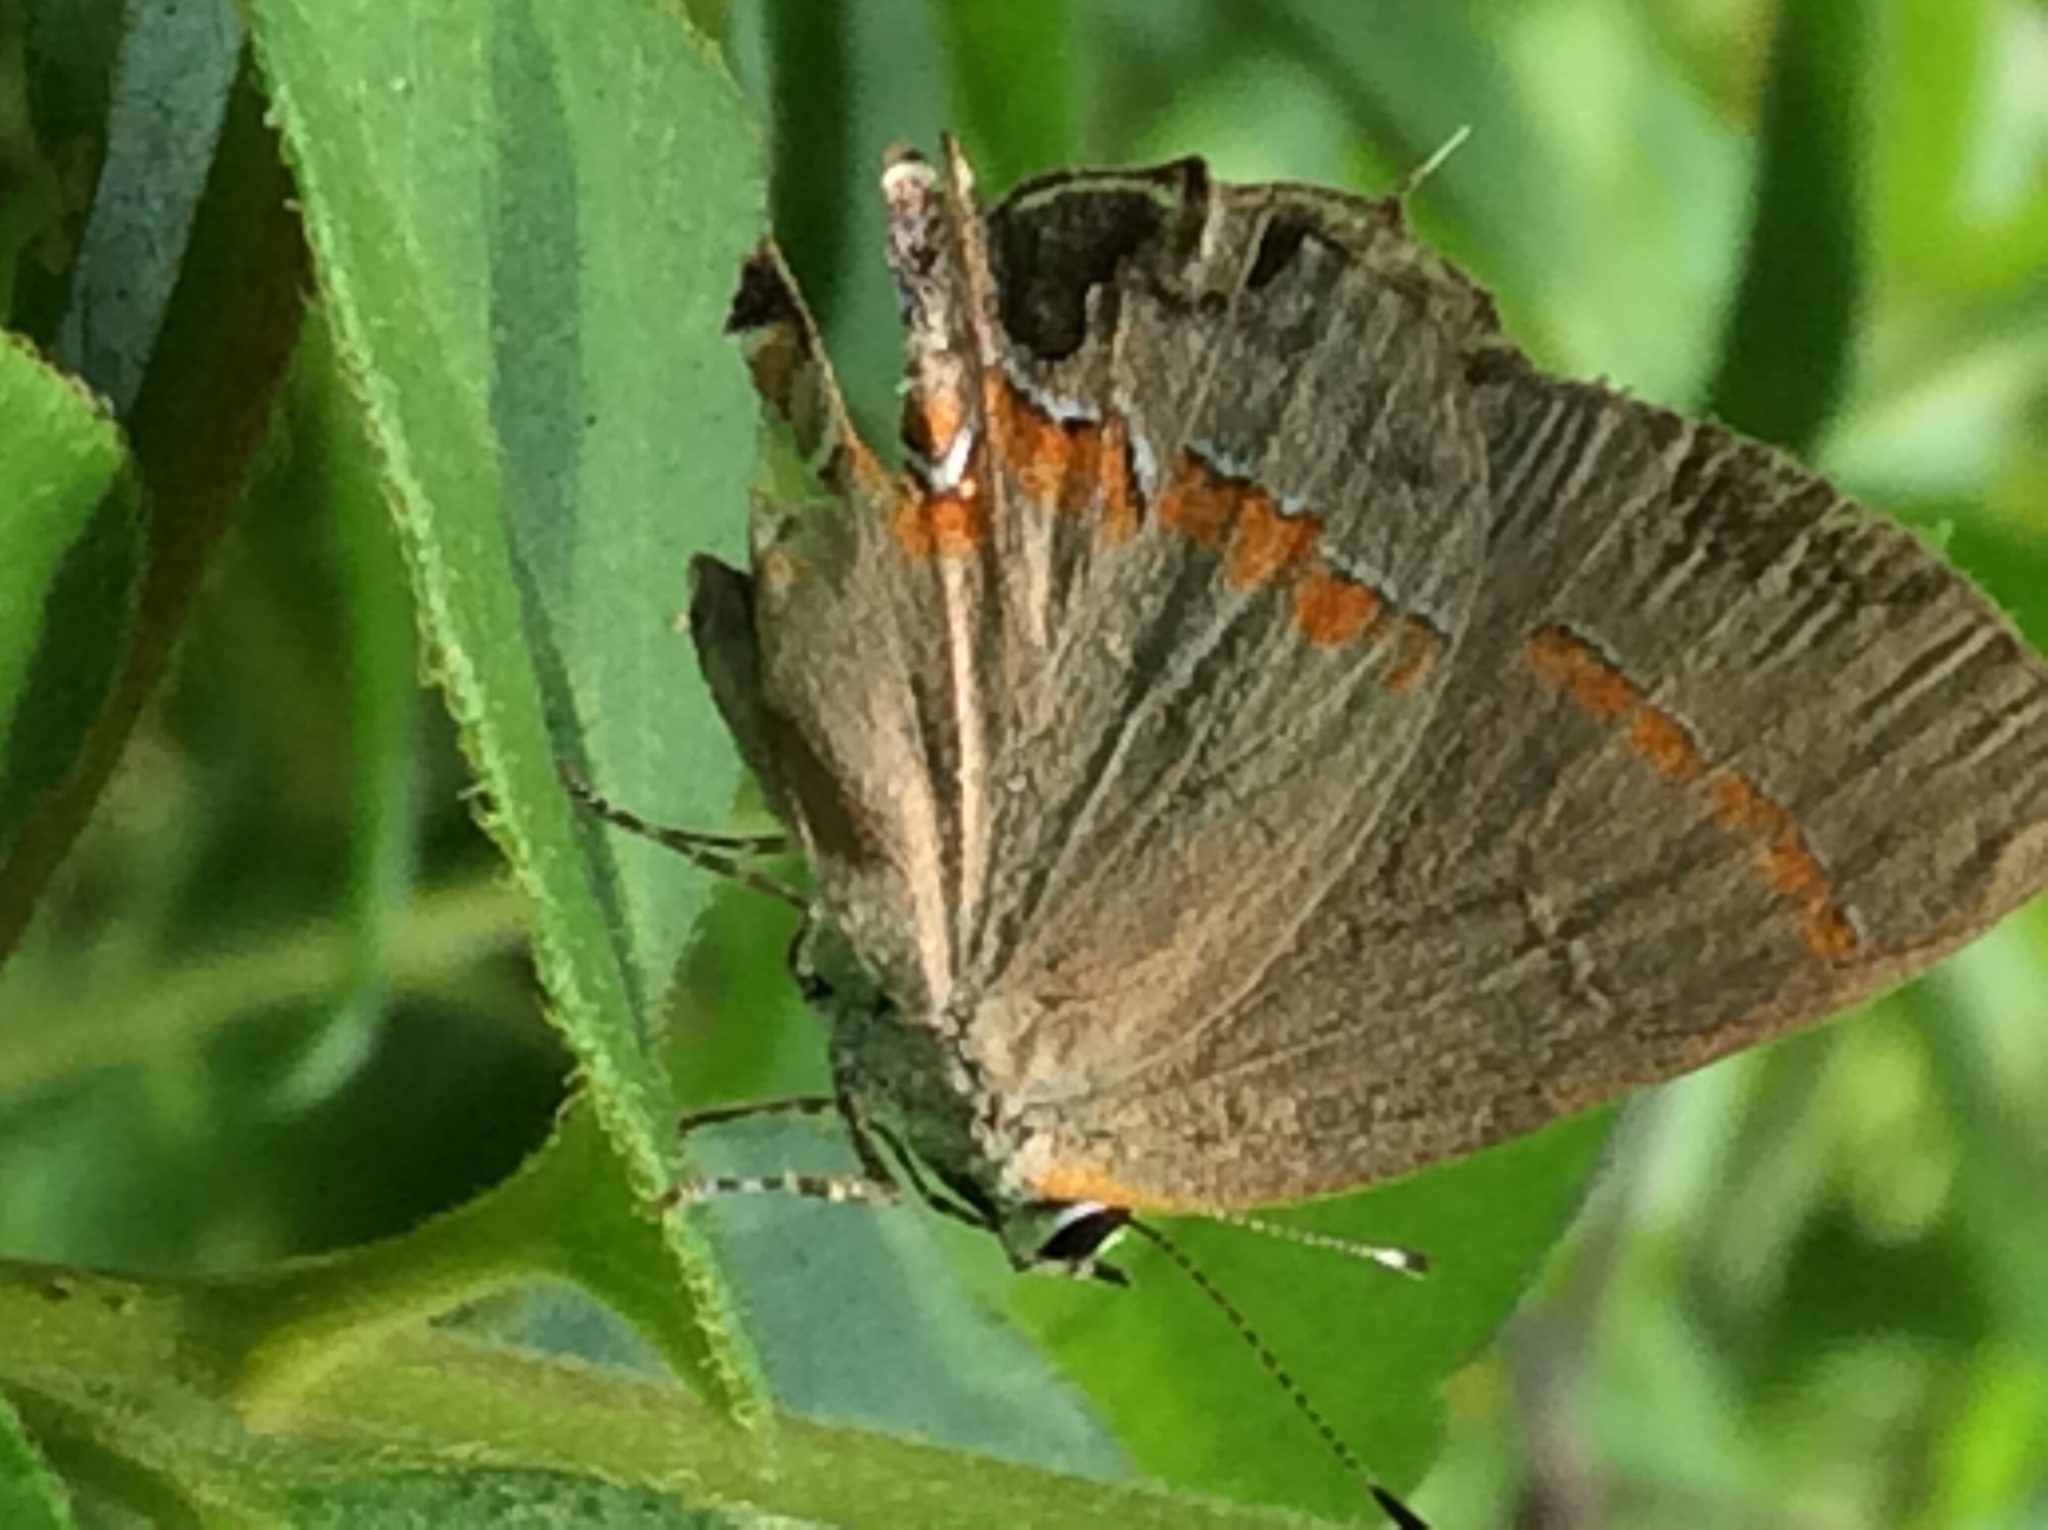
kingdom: Animalia
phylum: Arthropoda
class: Insecta
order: Lepidoptera
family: Lycaenidae
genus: Calycopis
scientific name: Calycopis cecrops
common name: Red-banded hairstreak
